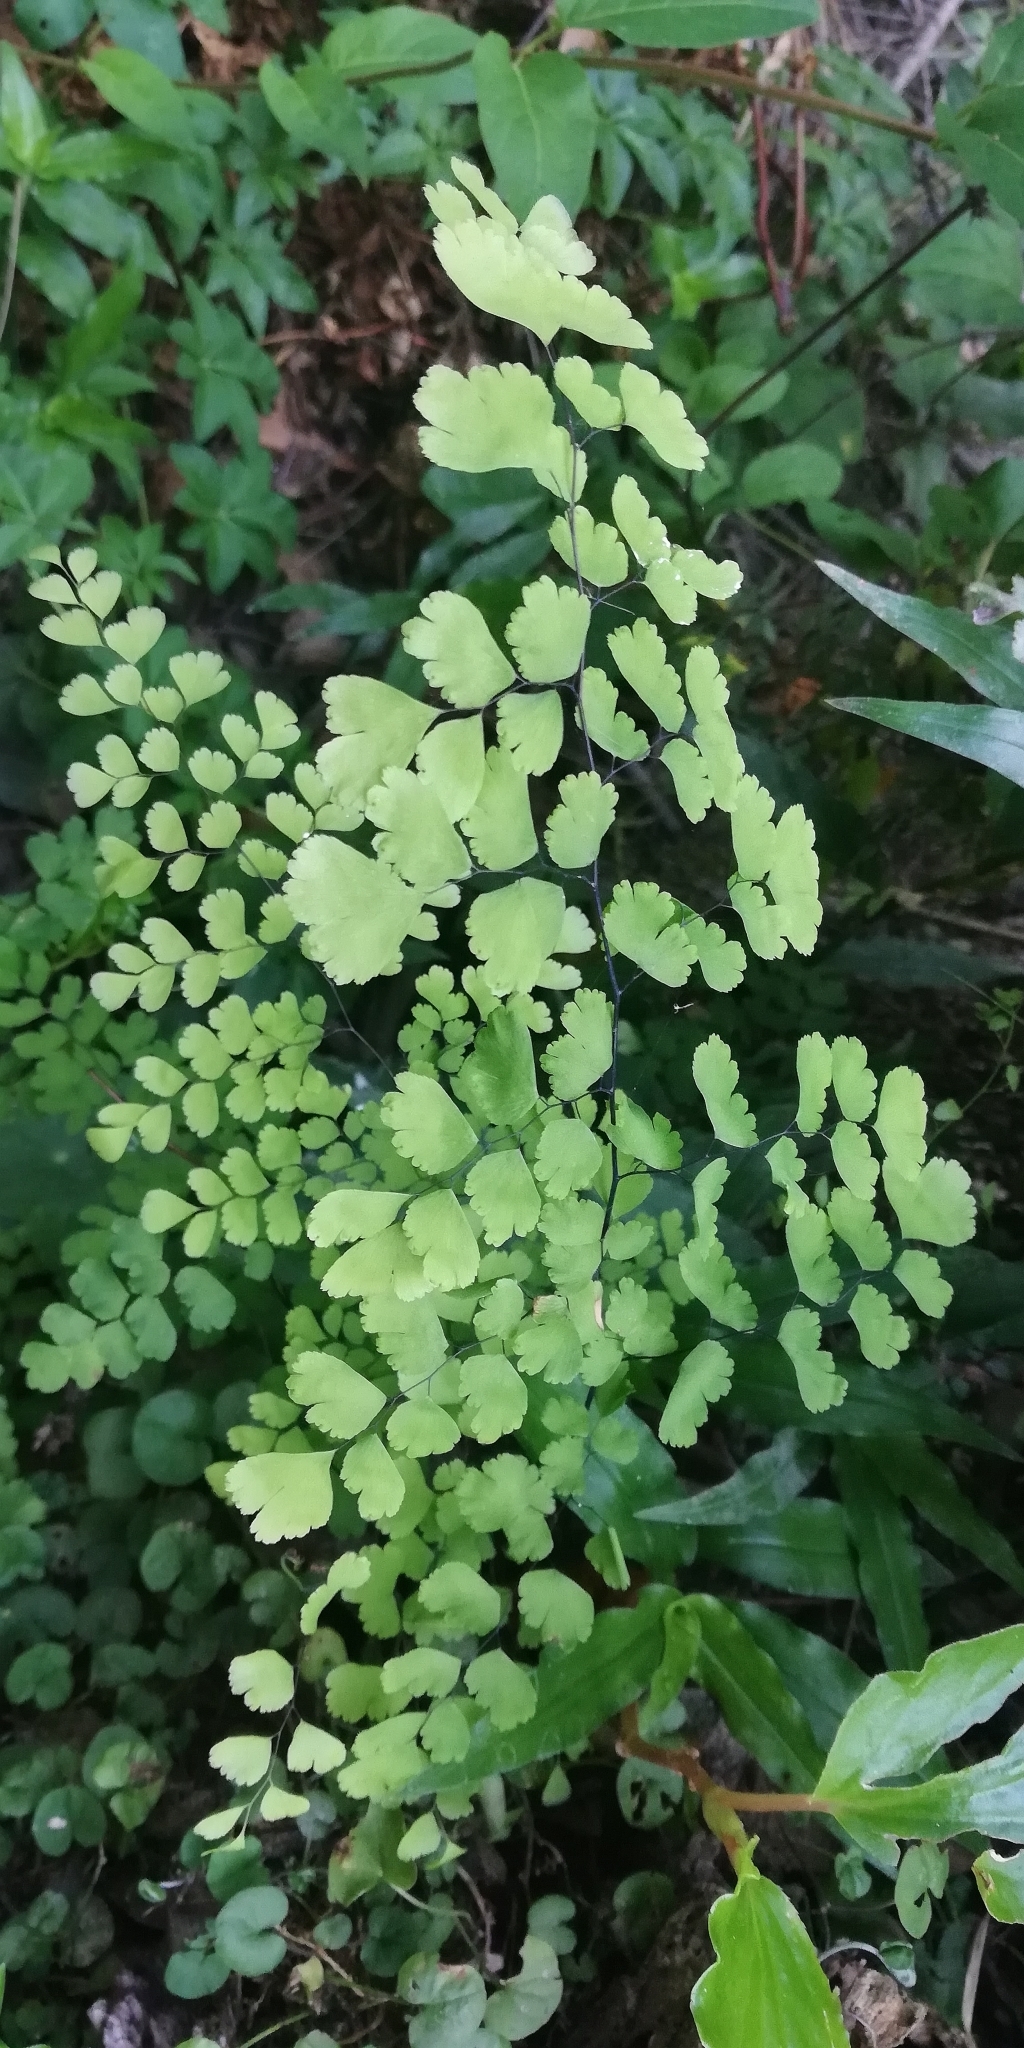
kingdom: Plantae
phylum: Tracheophyta
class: Polypodiopsida
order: Polypodiales
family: Pteridaceae
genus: Adiantum
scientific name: Adiantum raddianum
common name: Delta maidenhair fern
